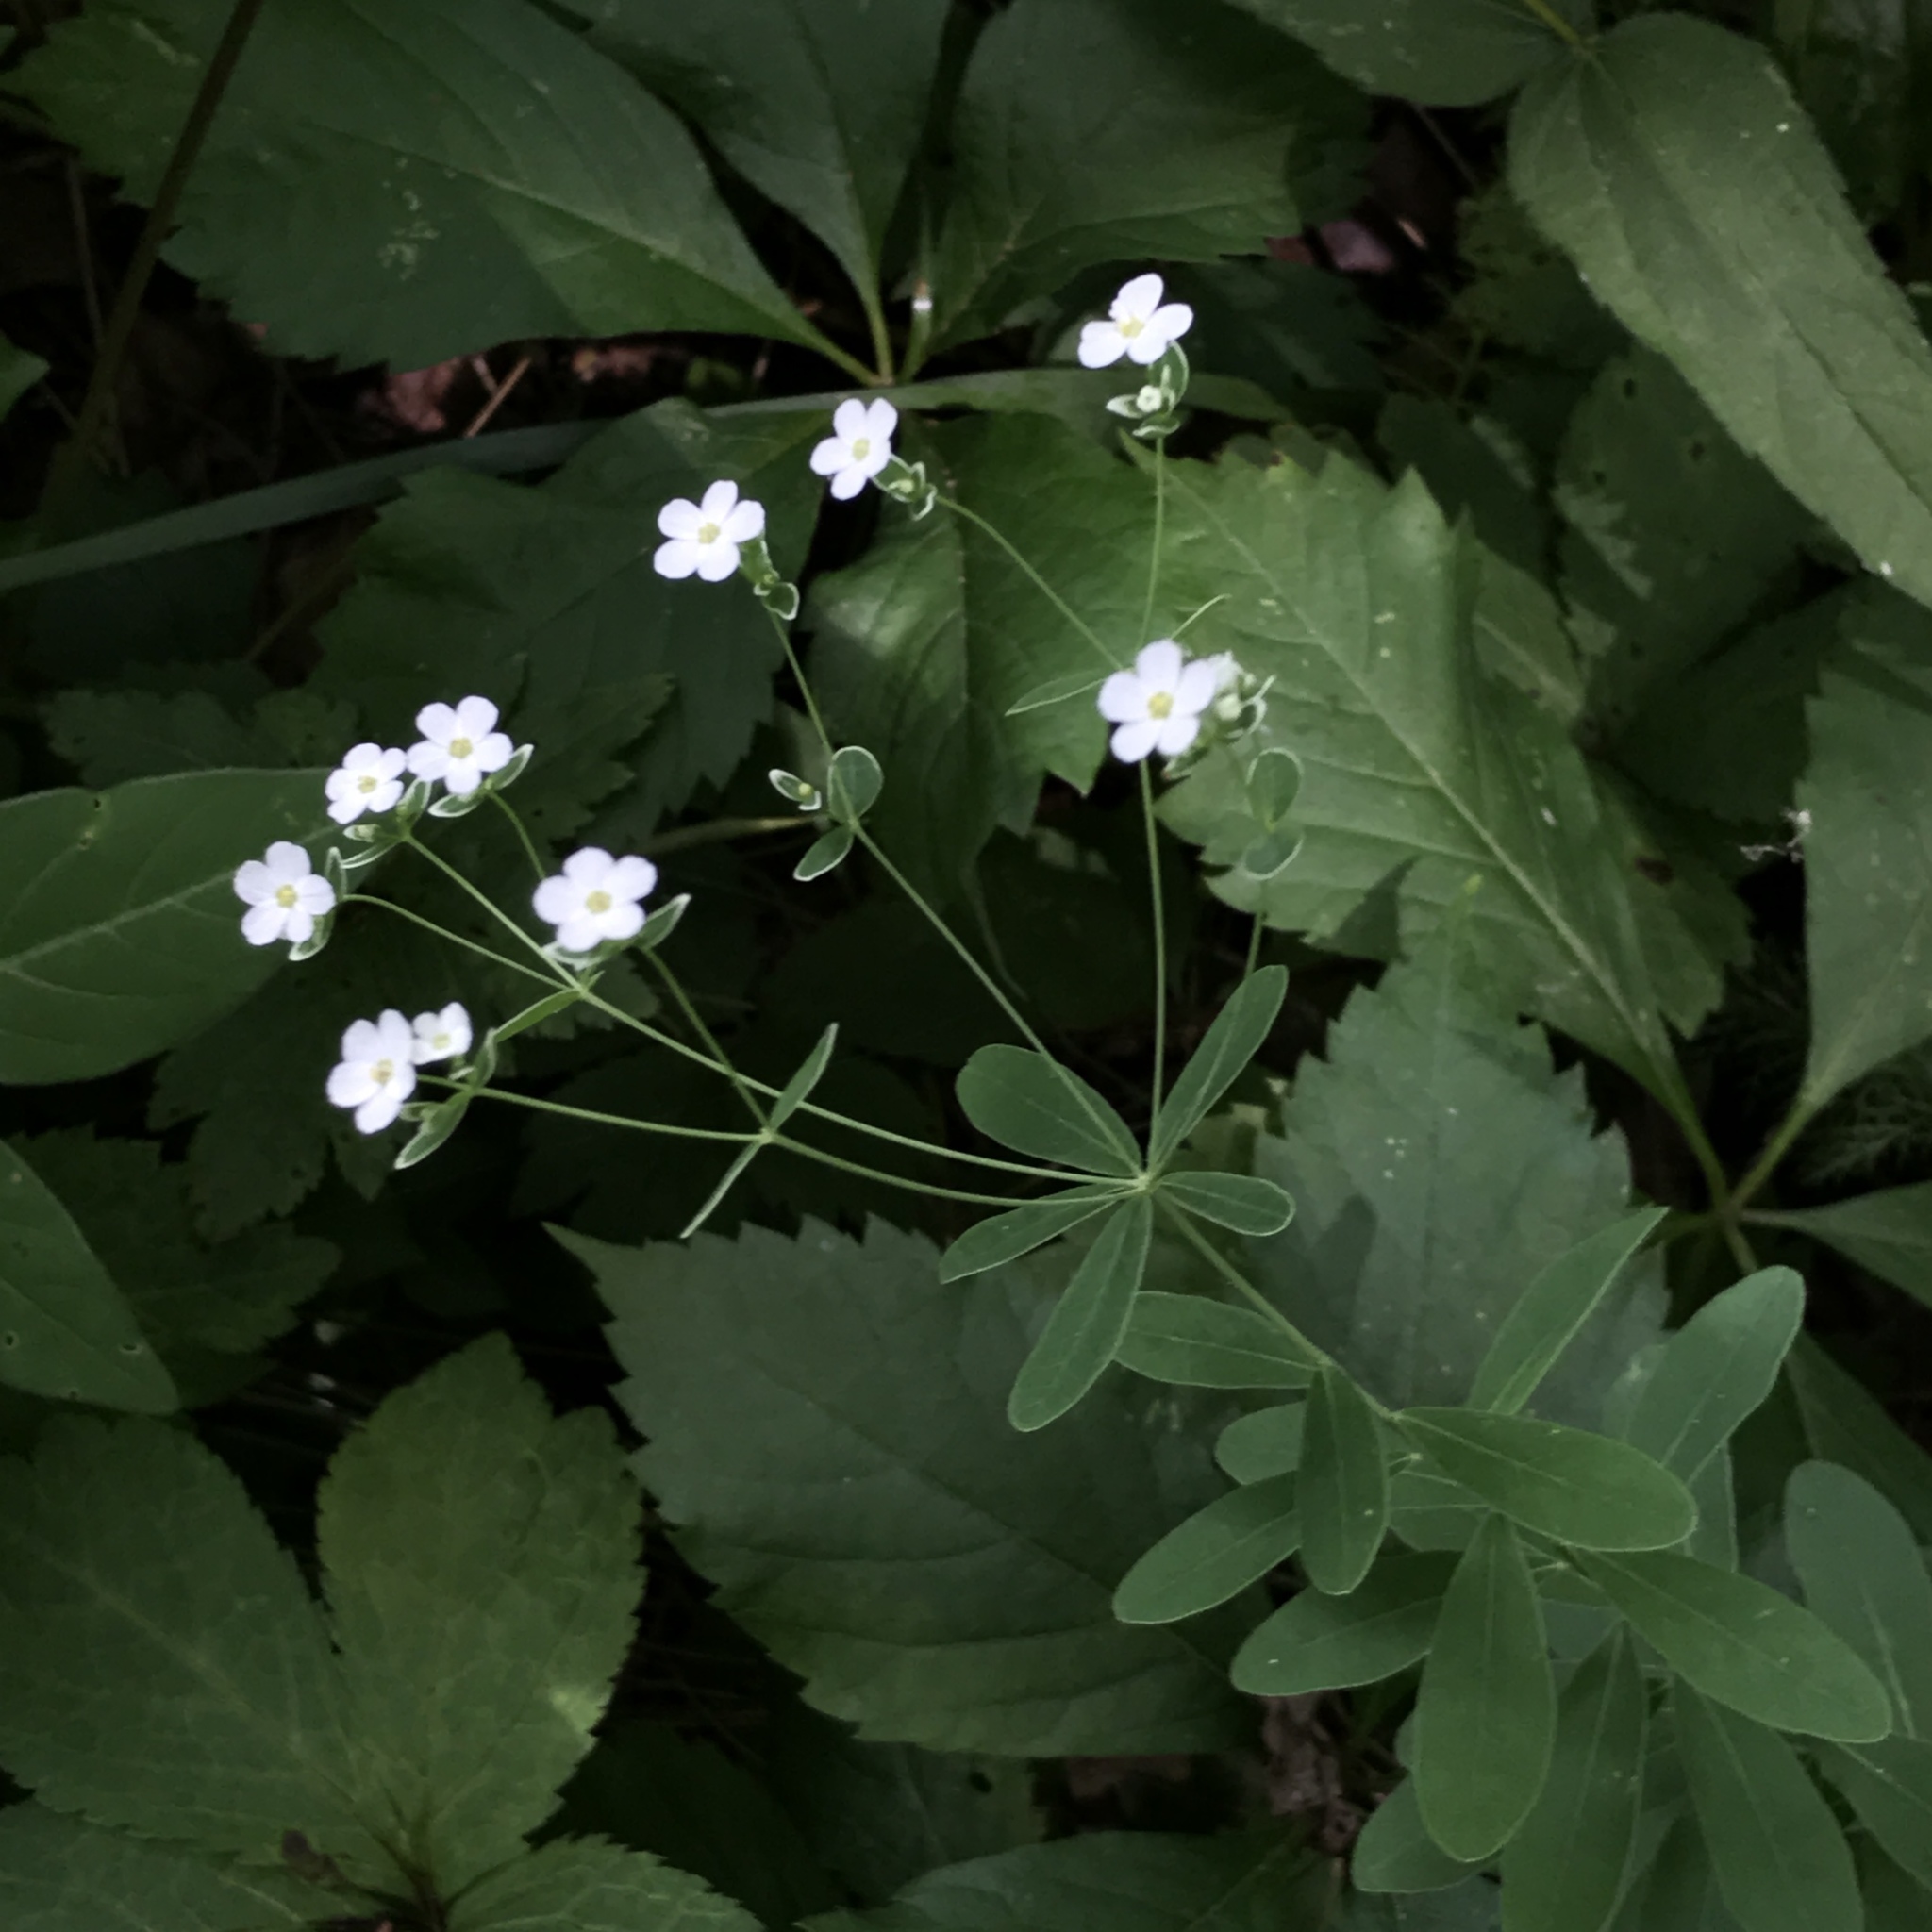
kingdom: Plantae
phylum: Tracheophyta
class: Magnoliopsida
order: Malpighiales
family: Euphorbiaceae
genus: Euphorbia
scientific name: Euphorbia corollata
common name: Flowering spurge
